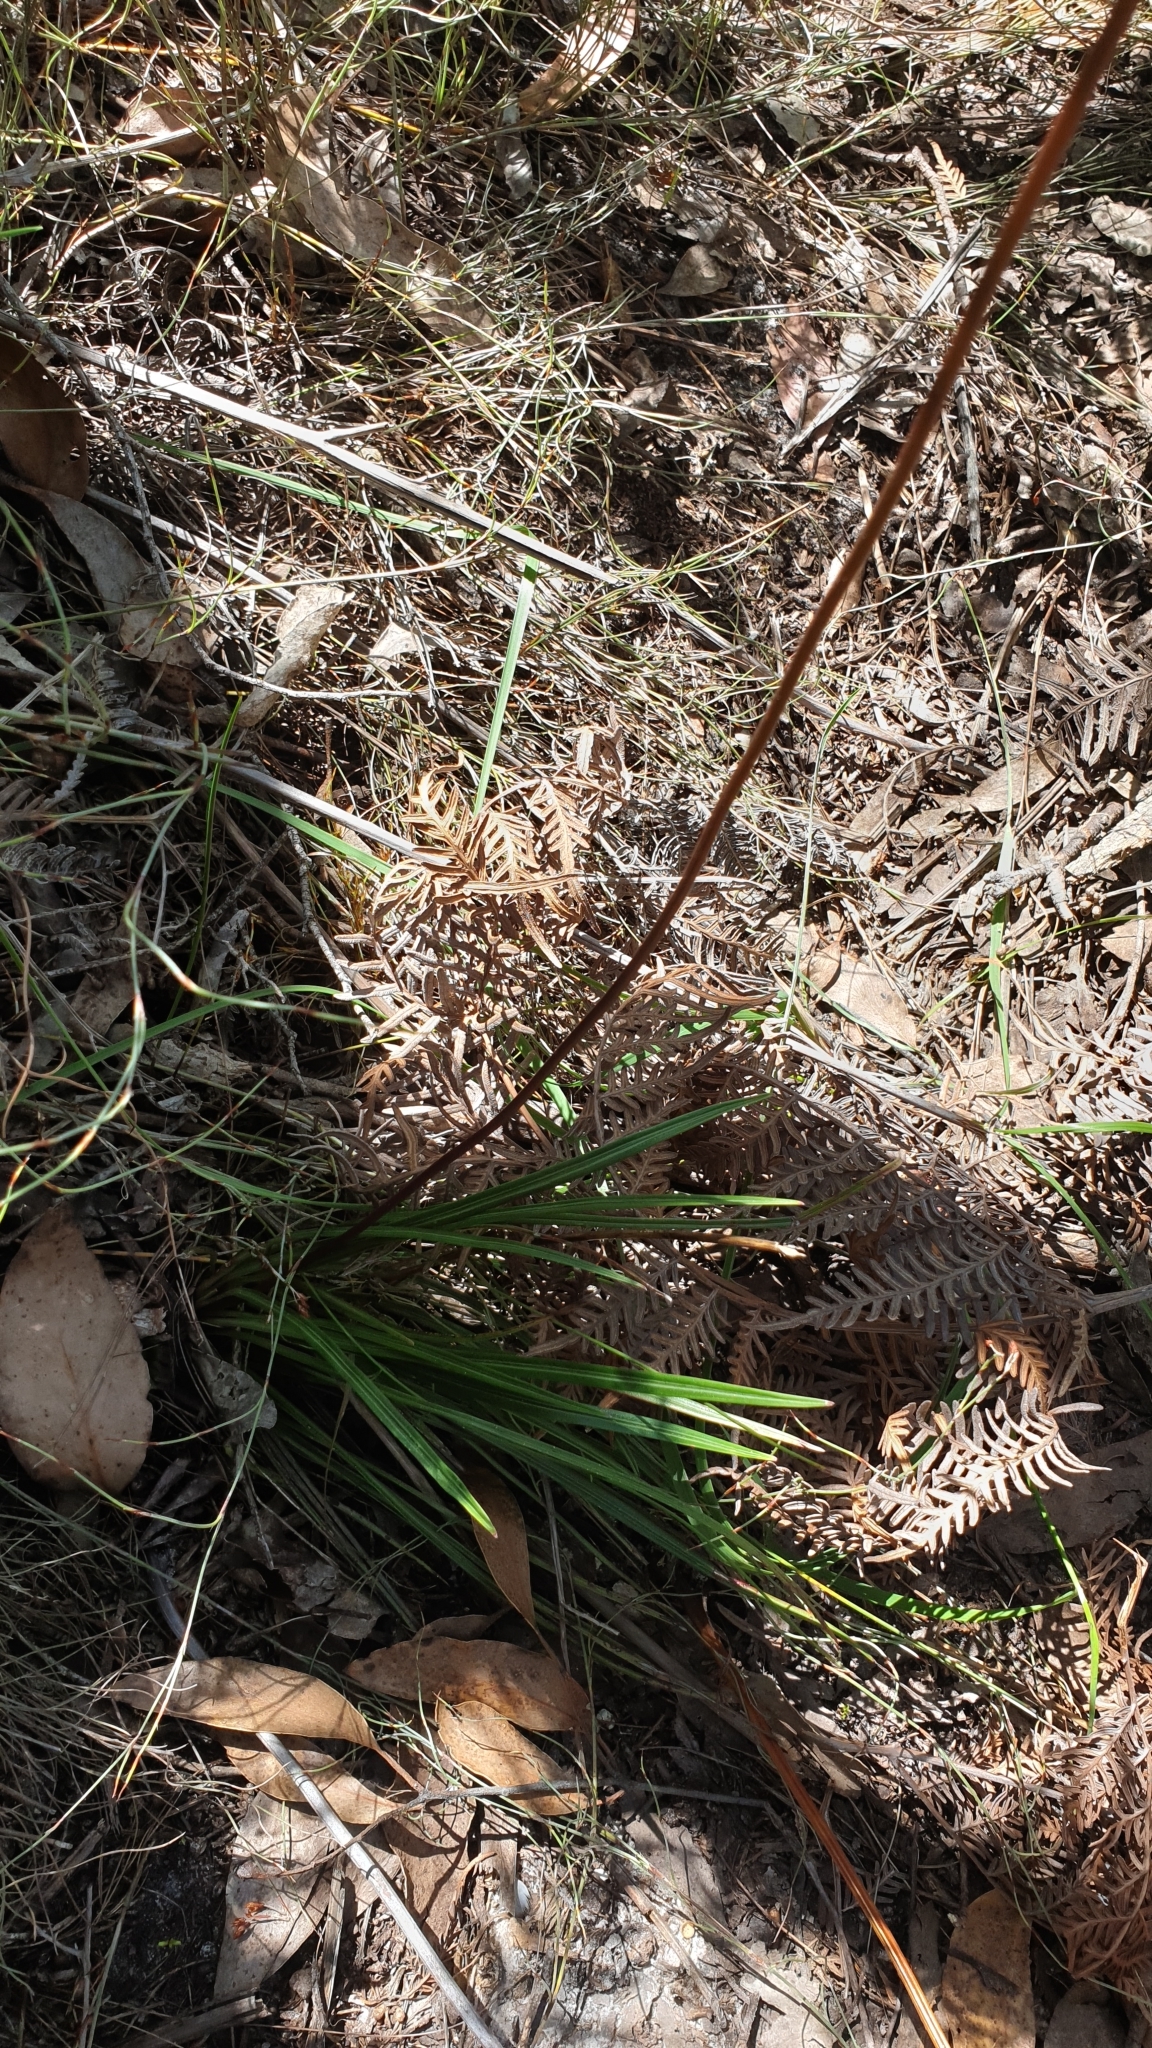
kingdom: Plantae
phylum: Tracheophyta
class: Magnoliopsida
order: Asterales
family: Stylidiaceae
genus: Stylidium
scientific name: Stylidium graminifolium
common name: Grass triggerplant
